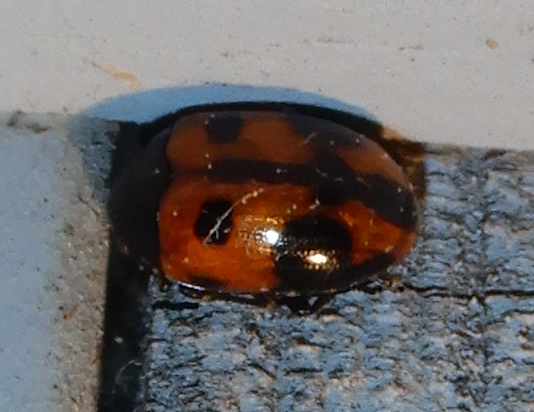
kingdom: Animalia
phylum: Arthropoda
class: Insecta
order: Coleoptera
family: Tenebrionidae
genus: Diaperis
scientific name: Diaperis maculata
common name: Darkling beetle
